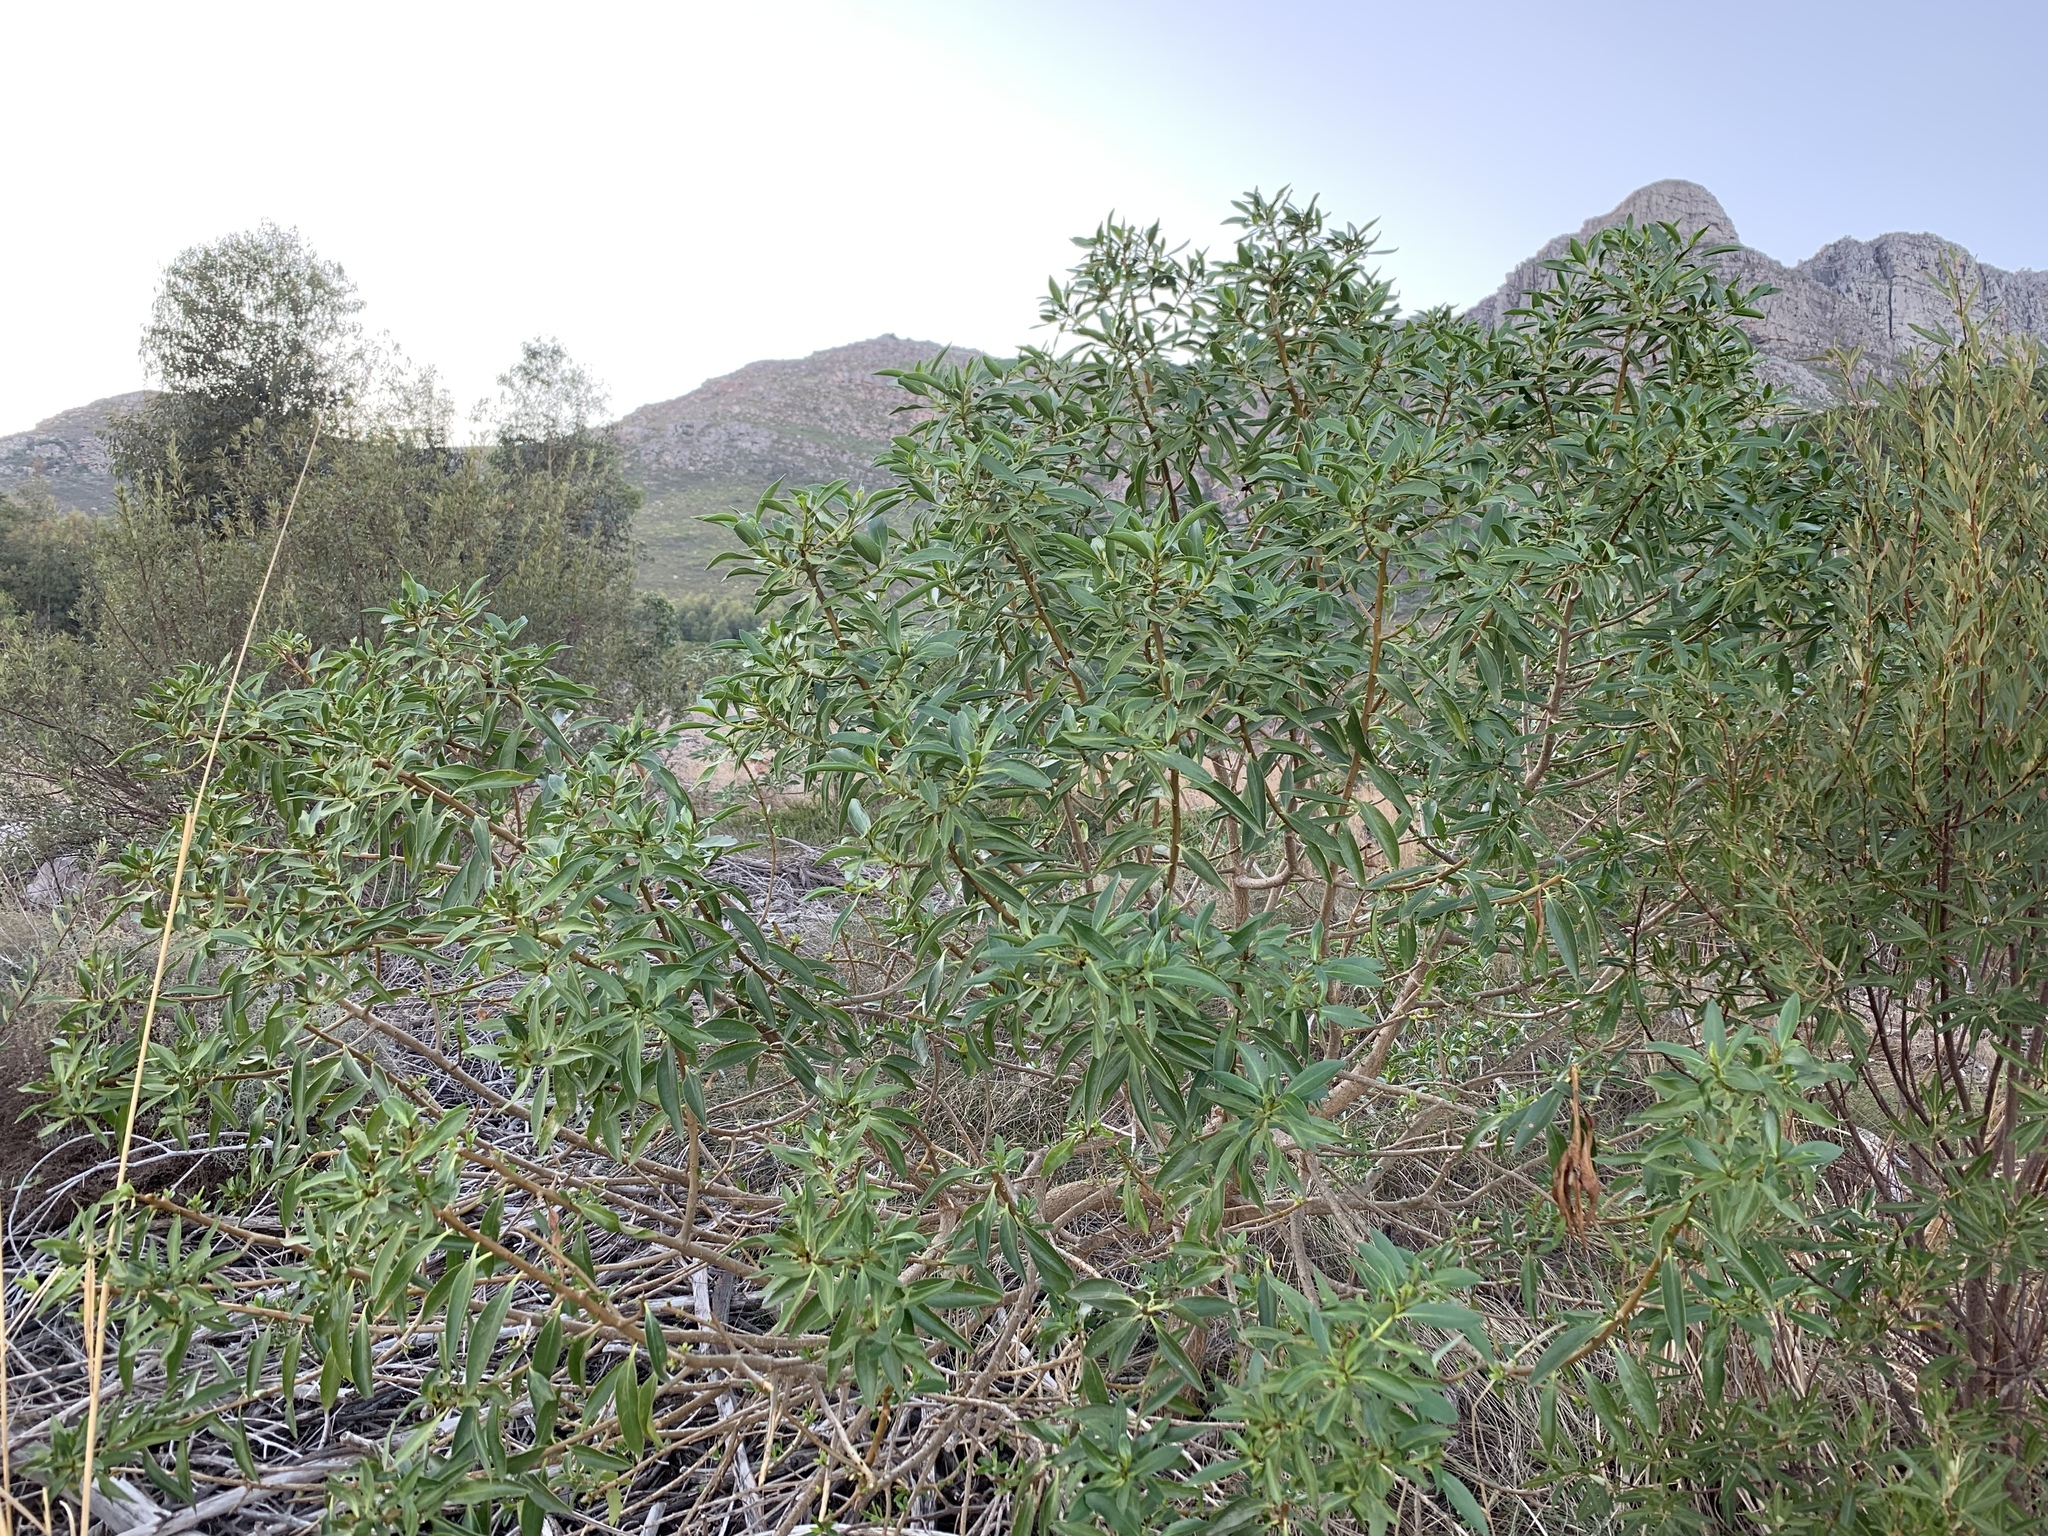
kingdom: Plantae
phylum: Tracheophyta
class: Magnoliopsida
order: Lamiales
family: Scrophulariaceae
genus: Myoporum
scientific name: Myoporum insulare
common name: Common boobialla
